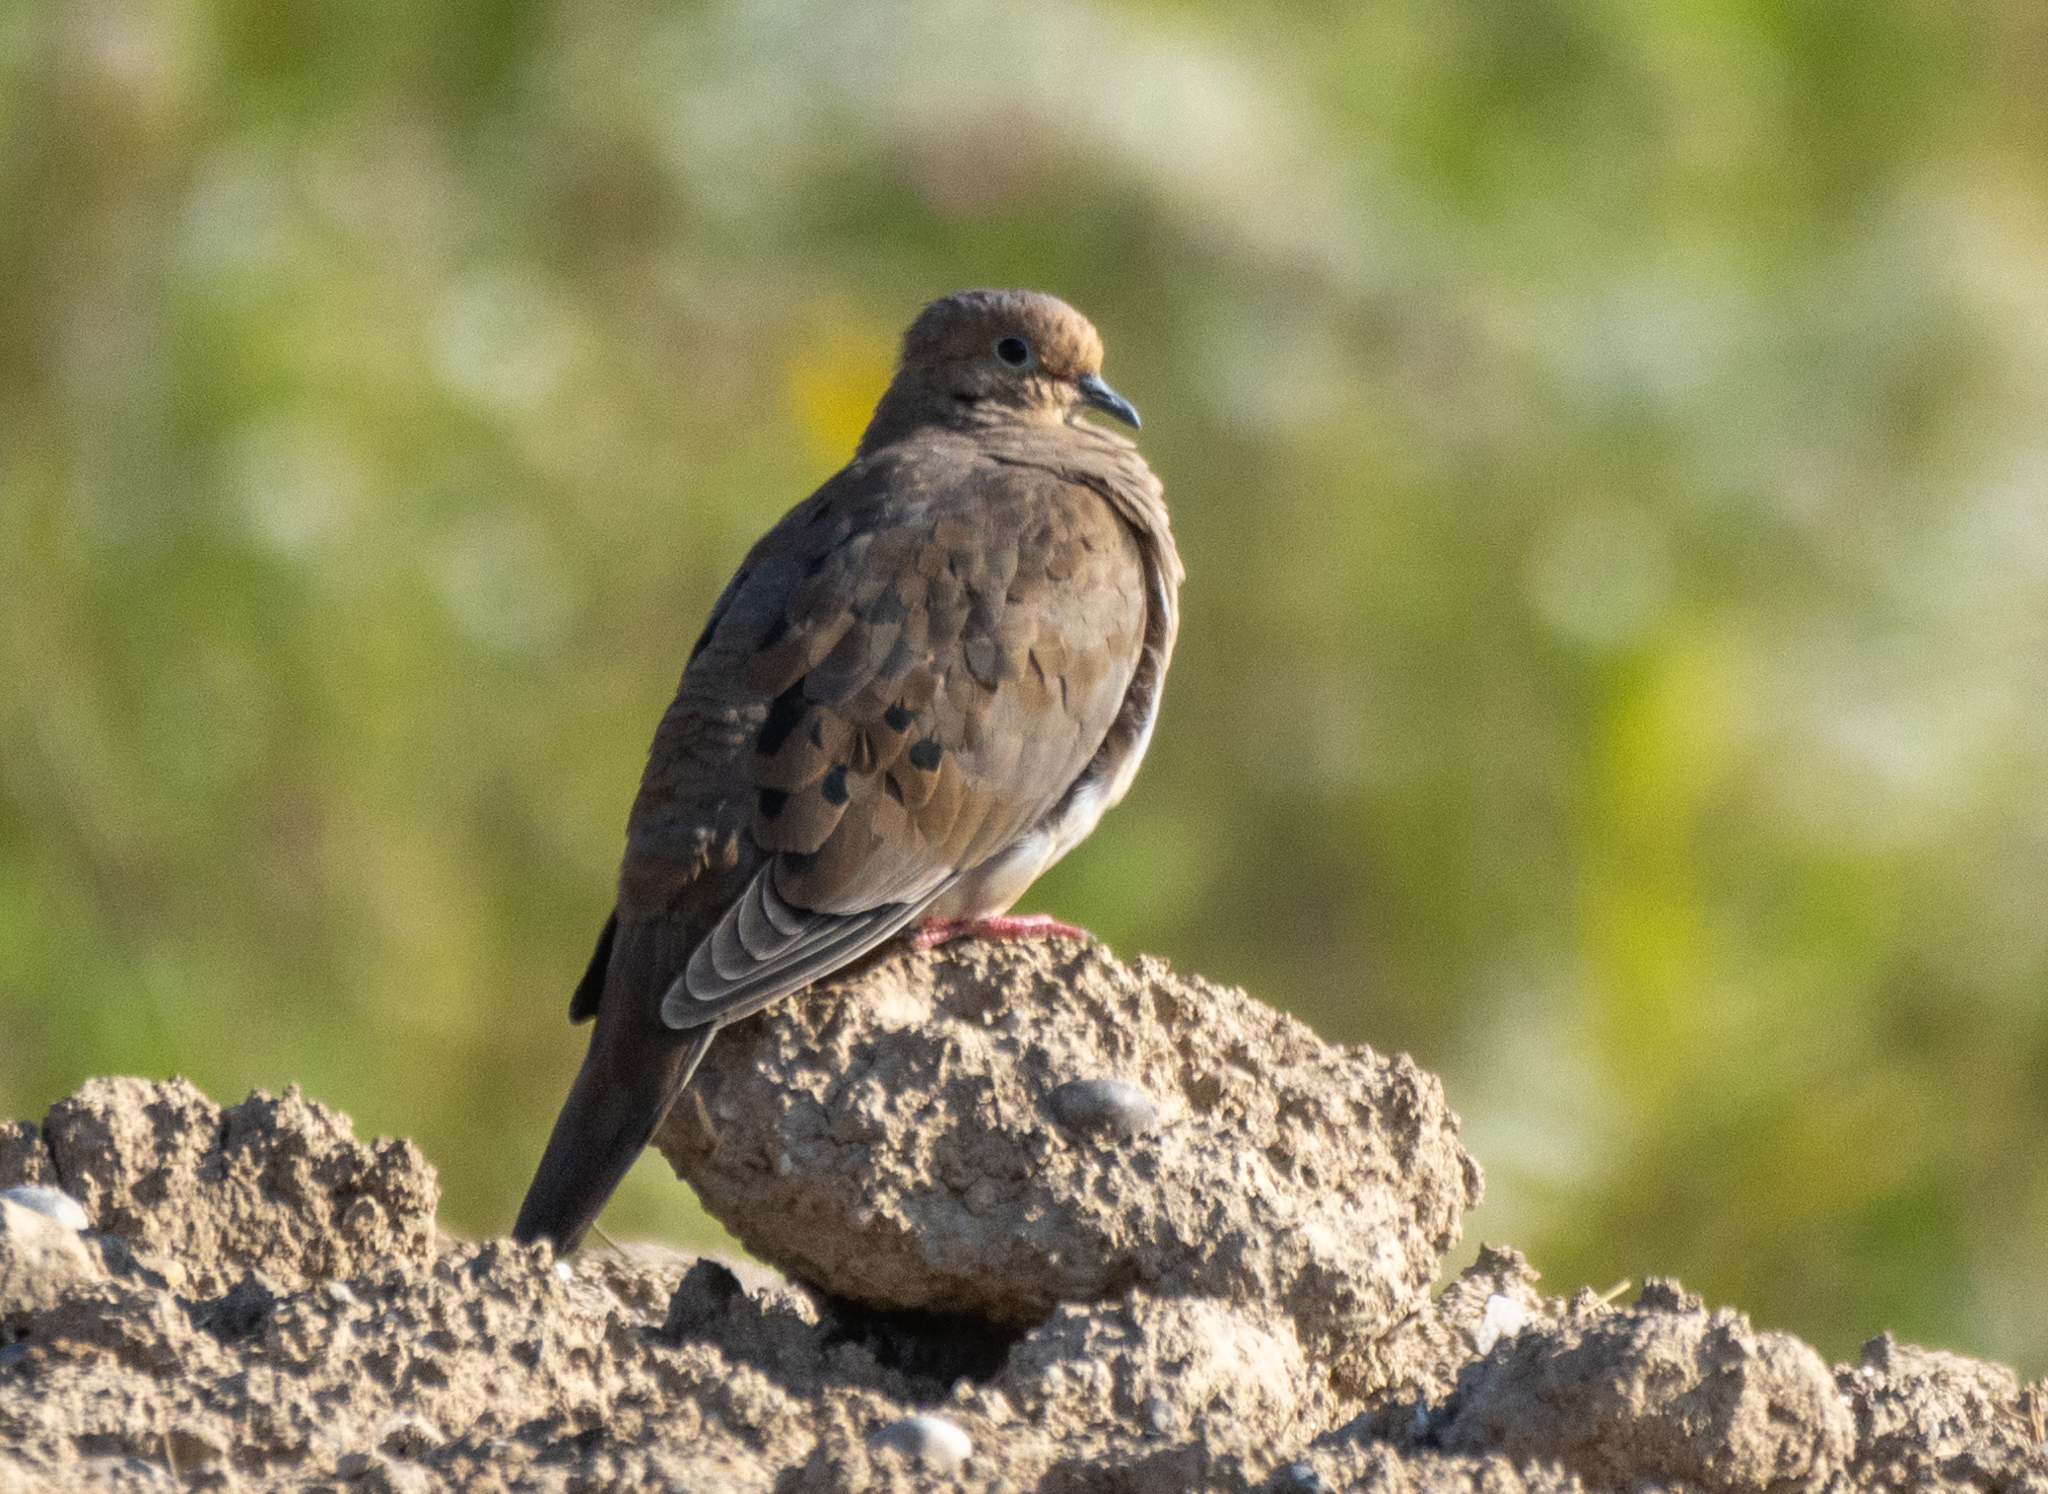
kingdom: Animalia
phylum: Chordata
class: Aves
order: Columbiformes
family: Columbidae
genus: Zenaida
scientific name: Zenaida macroura
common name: Mourning dove
